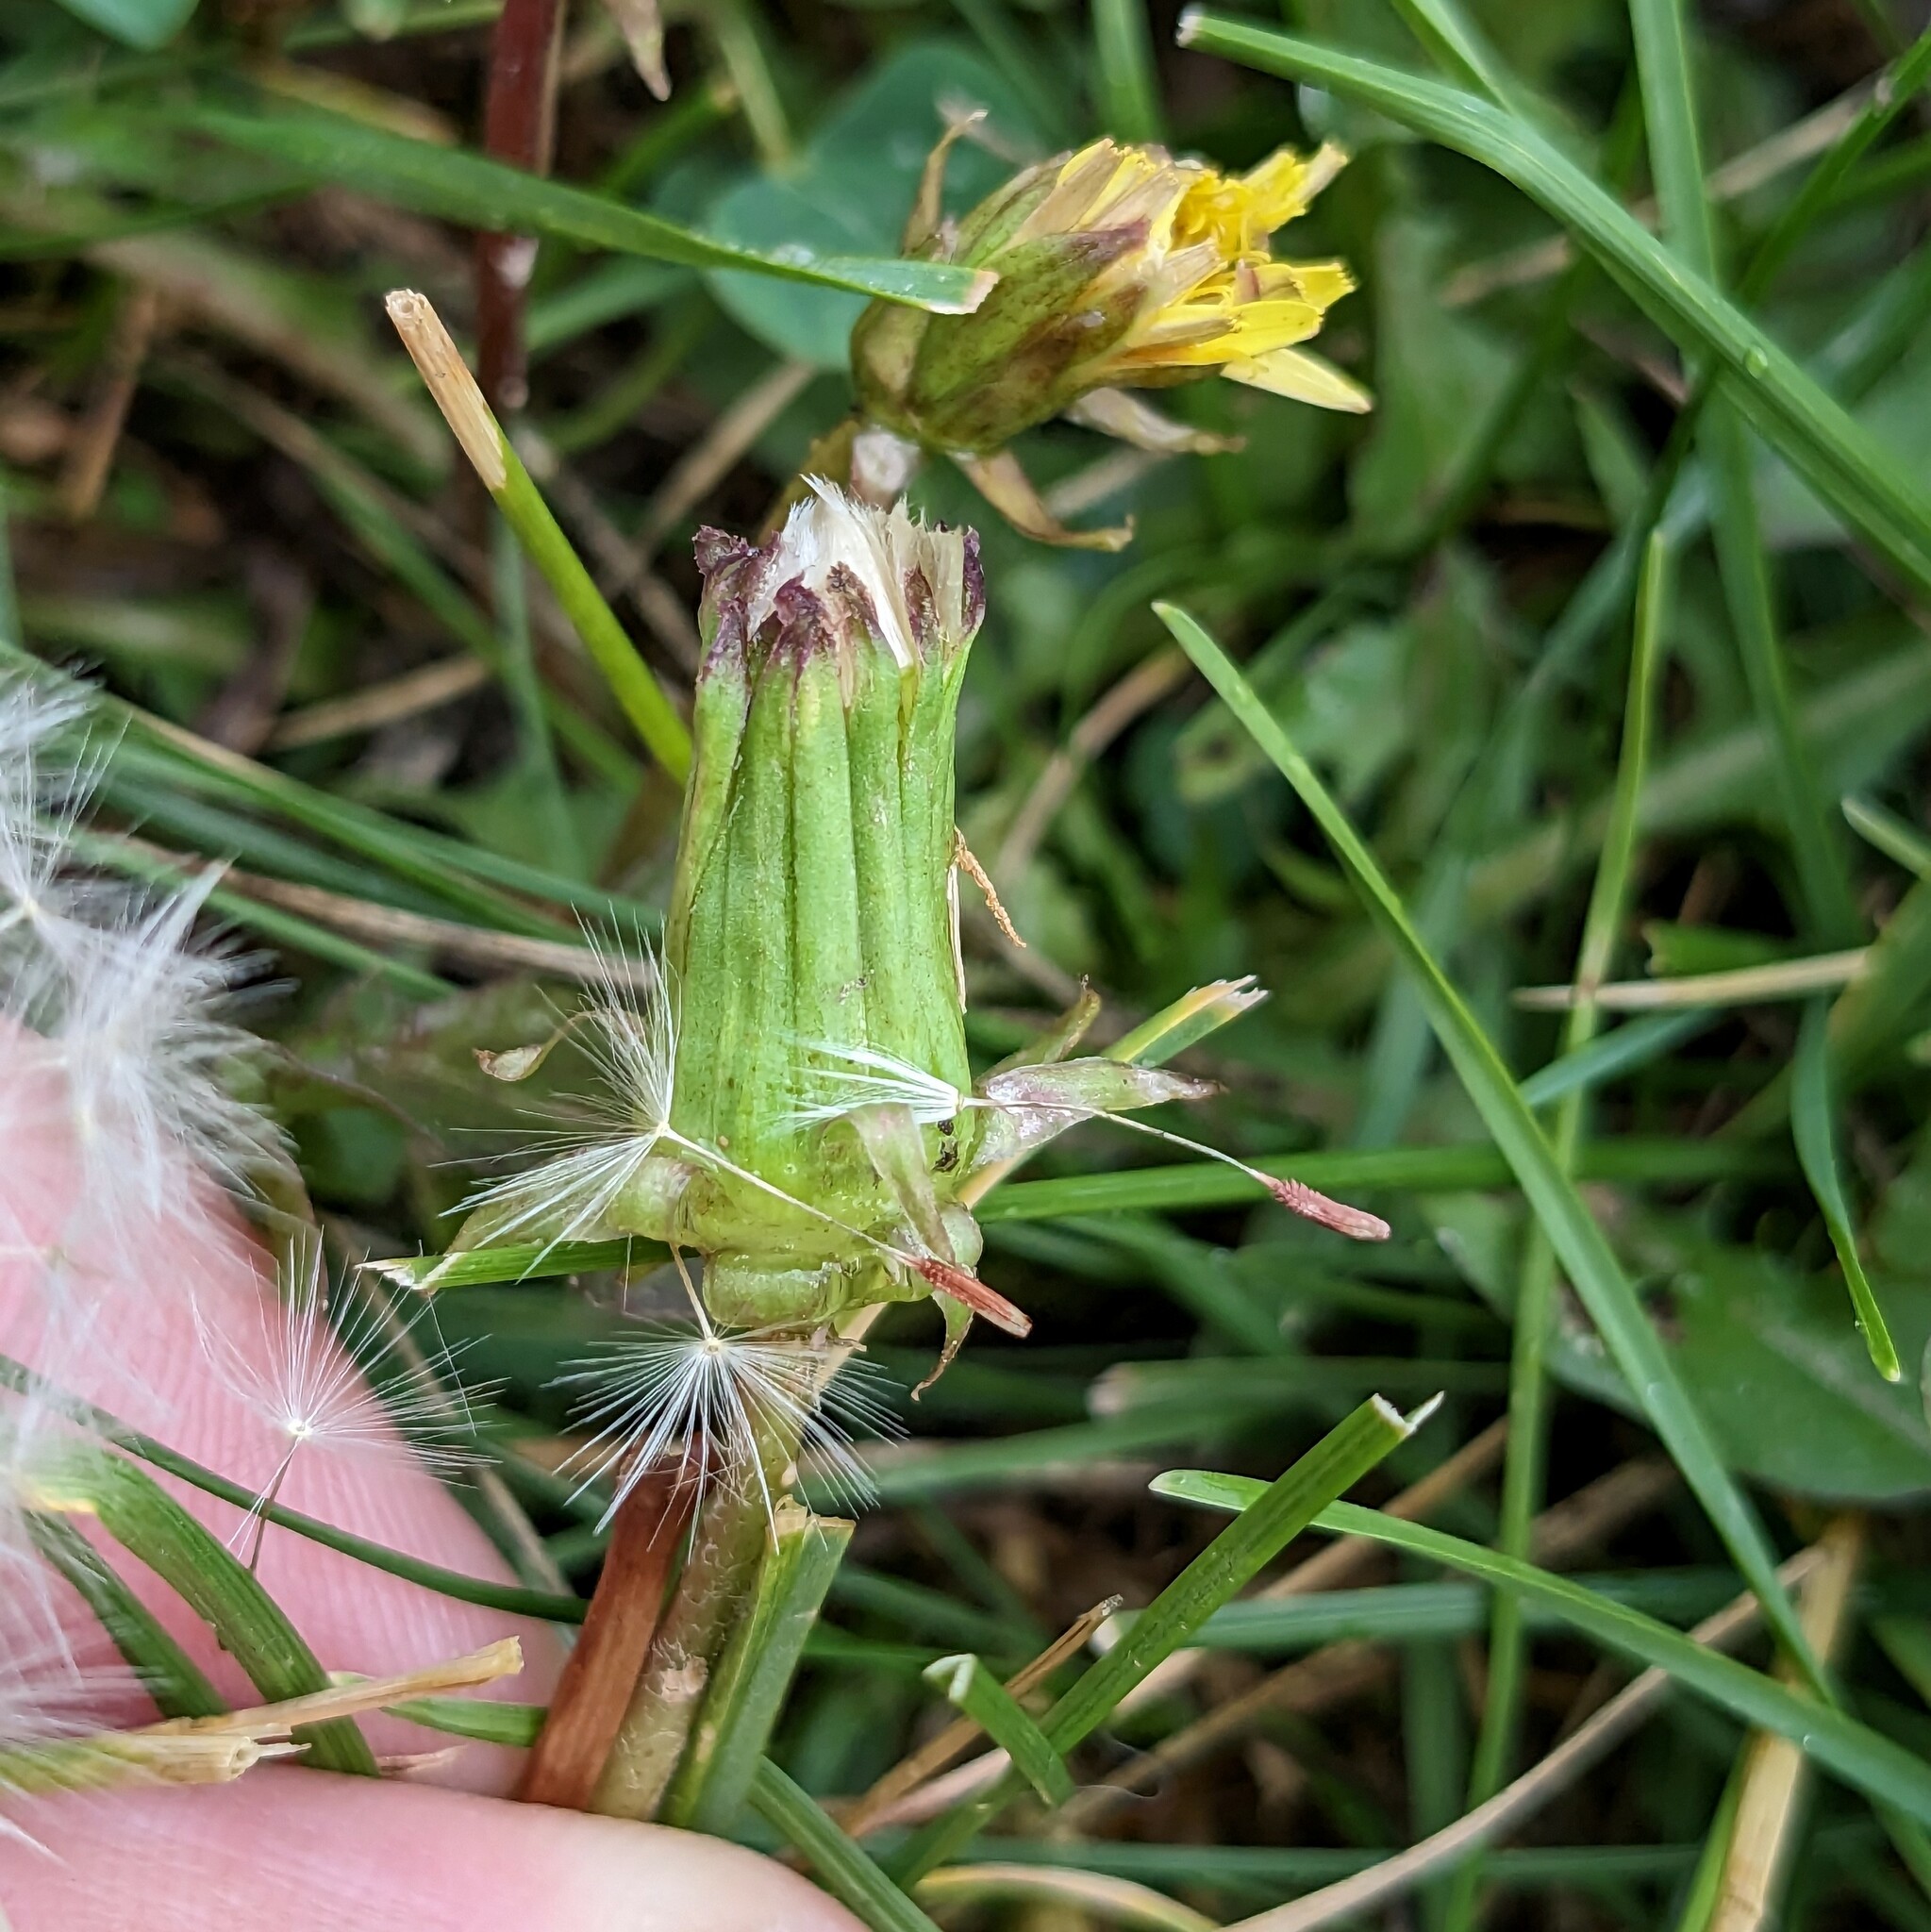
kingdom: Plantae
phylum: Tracheophyta
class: Magnoliopsida
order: Asterales
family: Asteraceae
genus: Taraxacum
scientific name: Taraxacum erythrospermum
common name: Rock dandelion
